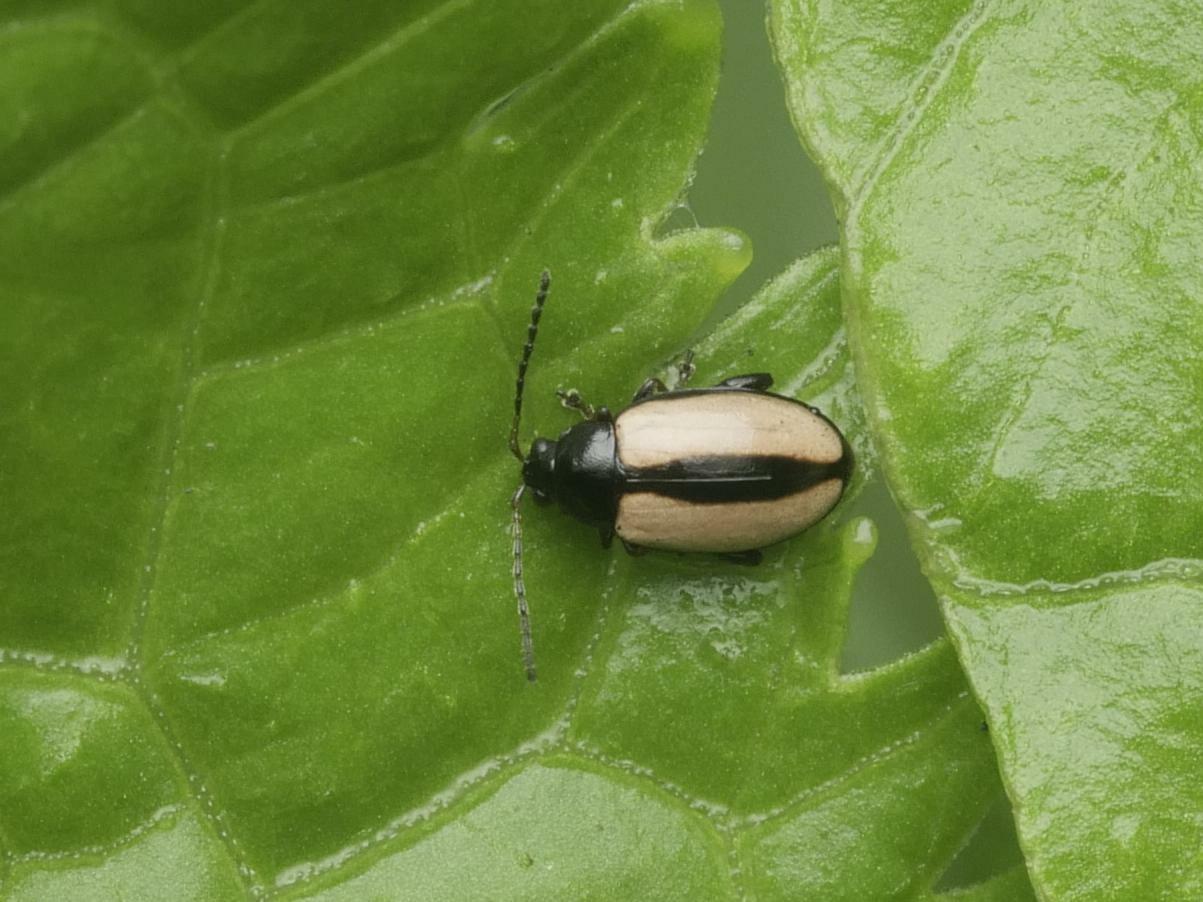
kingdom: Animalia
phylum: Arthropoda
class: Insecta
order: Coleoptera
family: Chrysomelidae
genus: Phyllotreta
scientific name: Phyllotreta armoraciae
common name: Horseradish flea beetle
